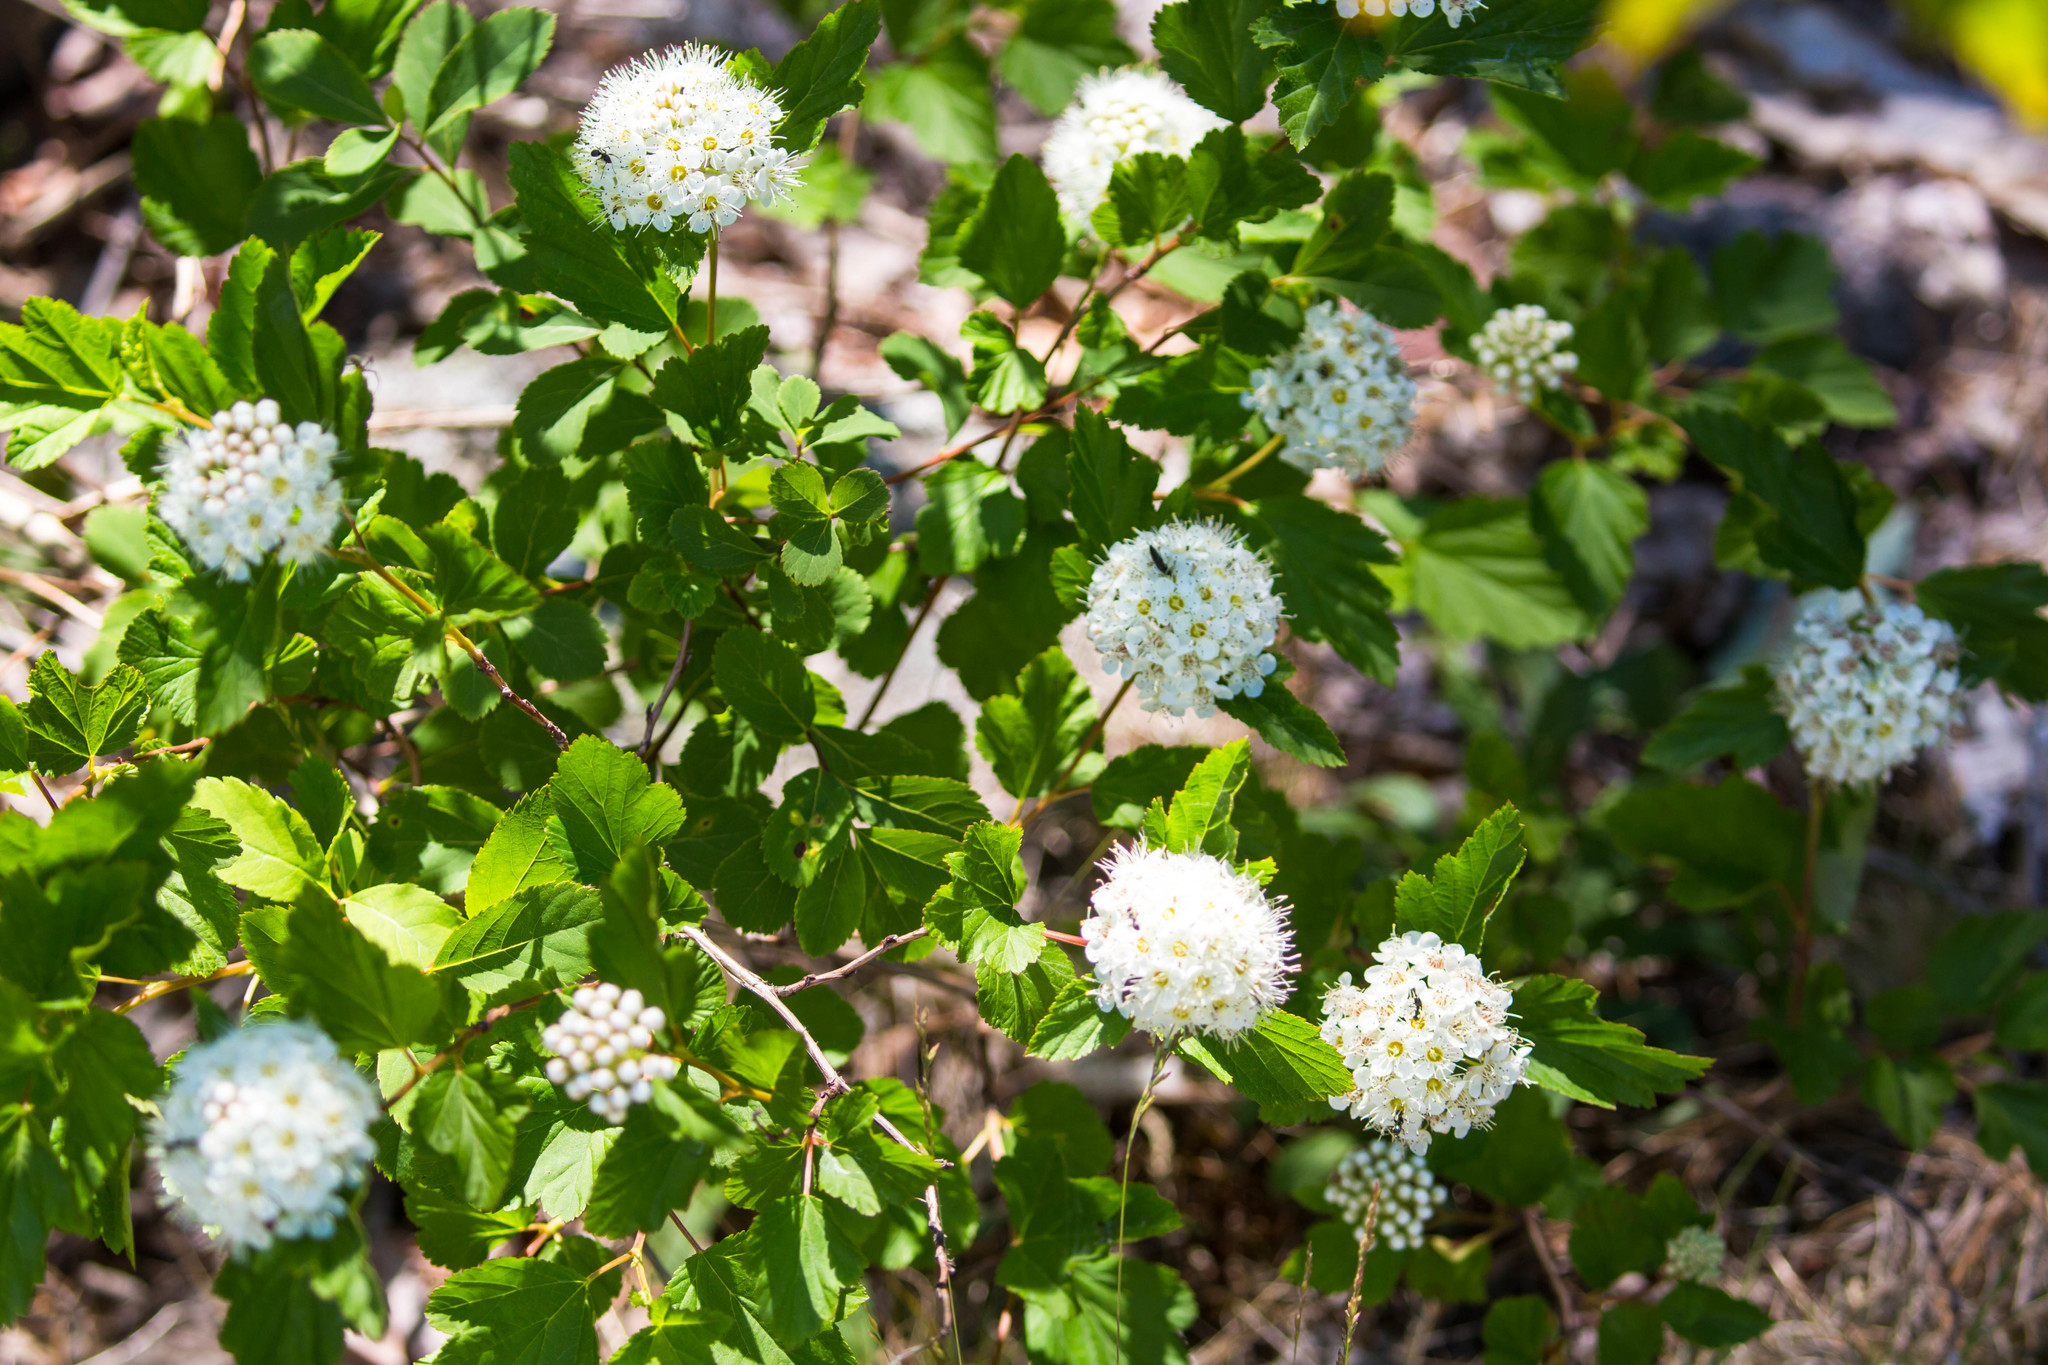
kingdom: Plantae
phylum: Tracheophyta
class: Magnoliopsida
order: Rosales
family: Rosaceae
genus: Physocarpus
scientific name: Physocarpus opulifolius
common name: Ninebark
